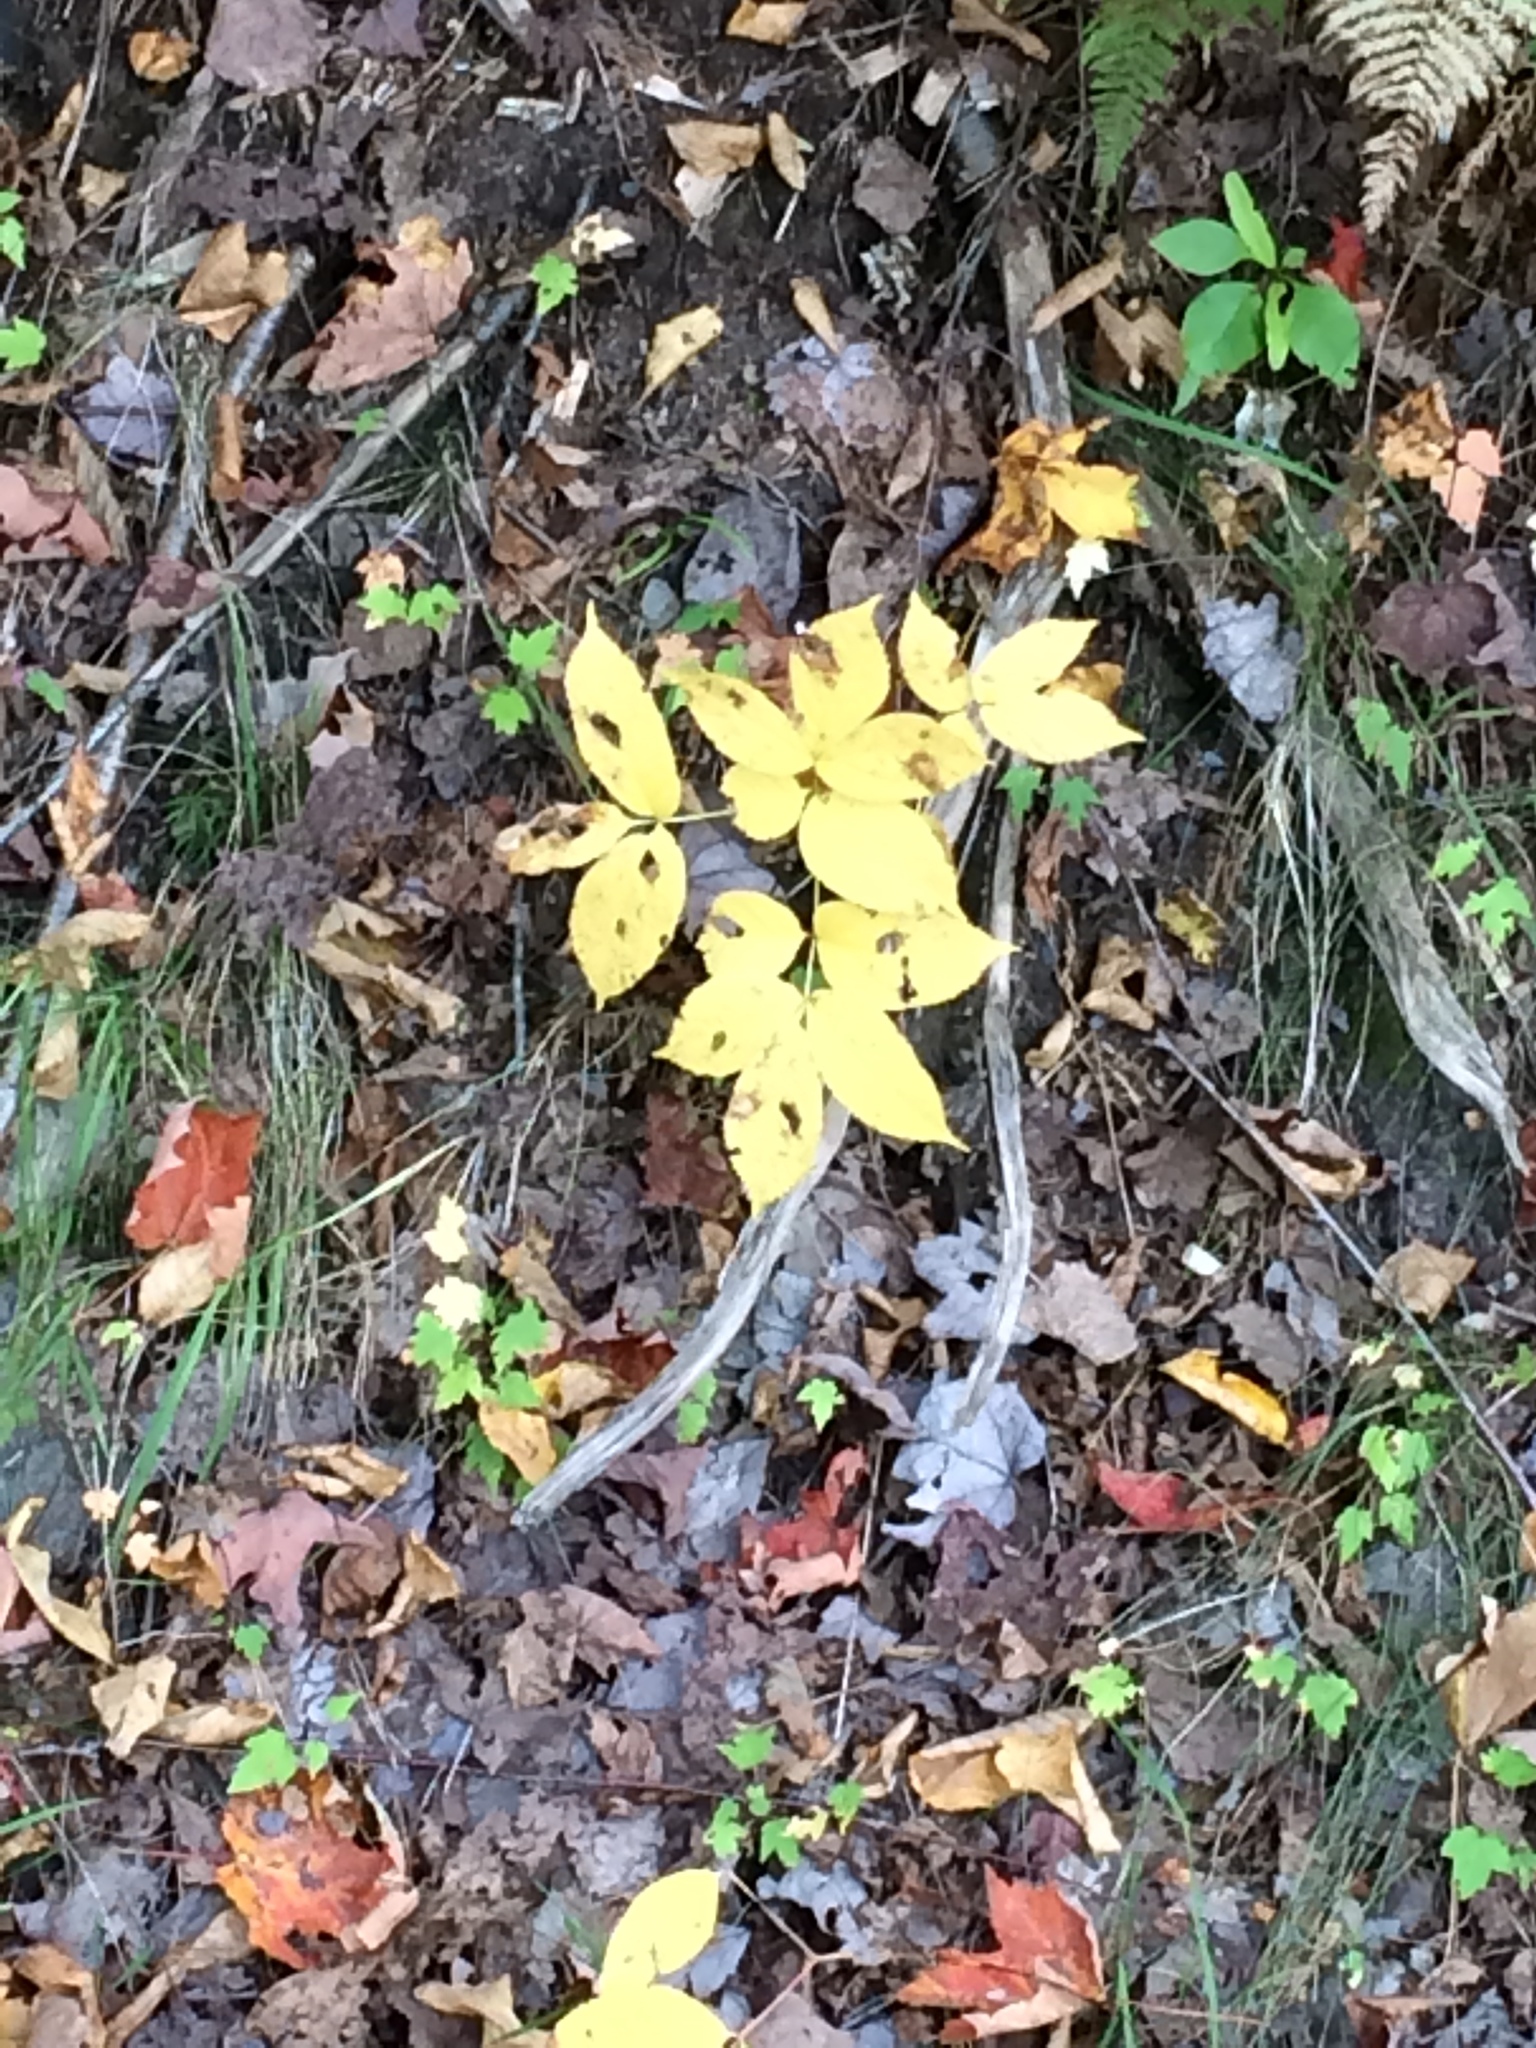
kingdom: Plantae
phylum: Tracheophyta
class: Magnoliopsida
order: Apiales
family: Araliaceae
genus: Aralia
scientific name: Aralia nudicaulis
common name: Wild sarsaparilla
